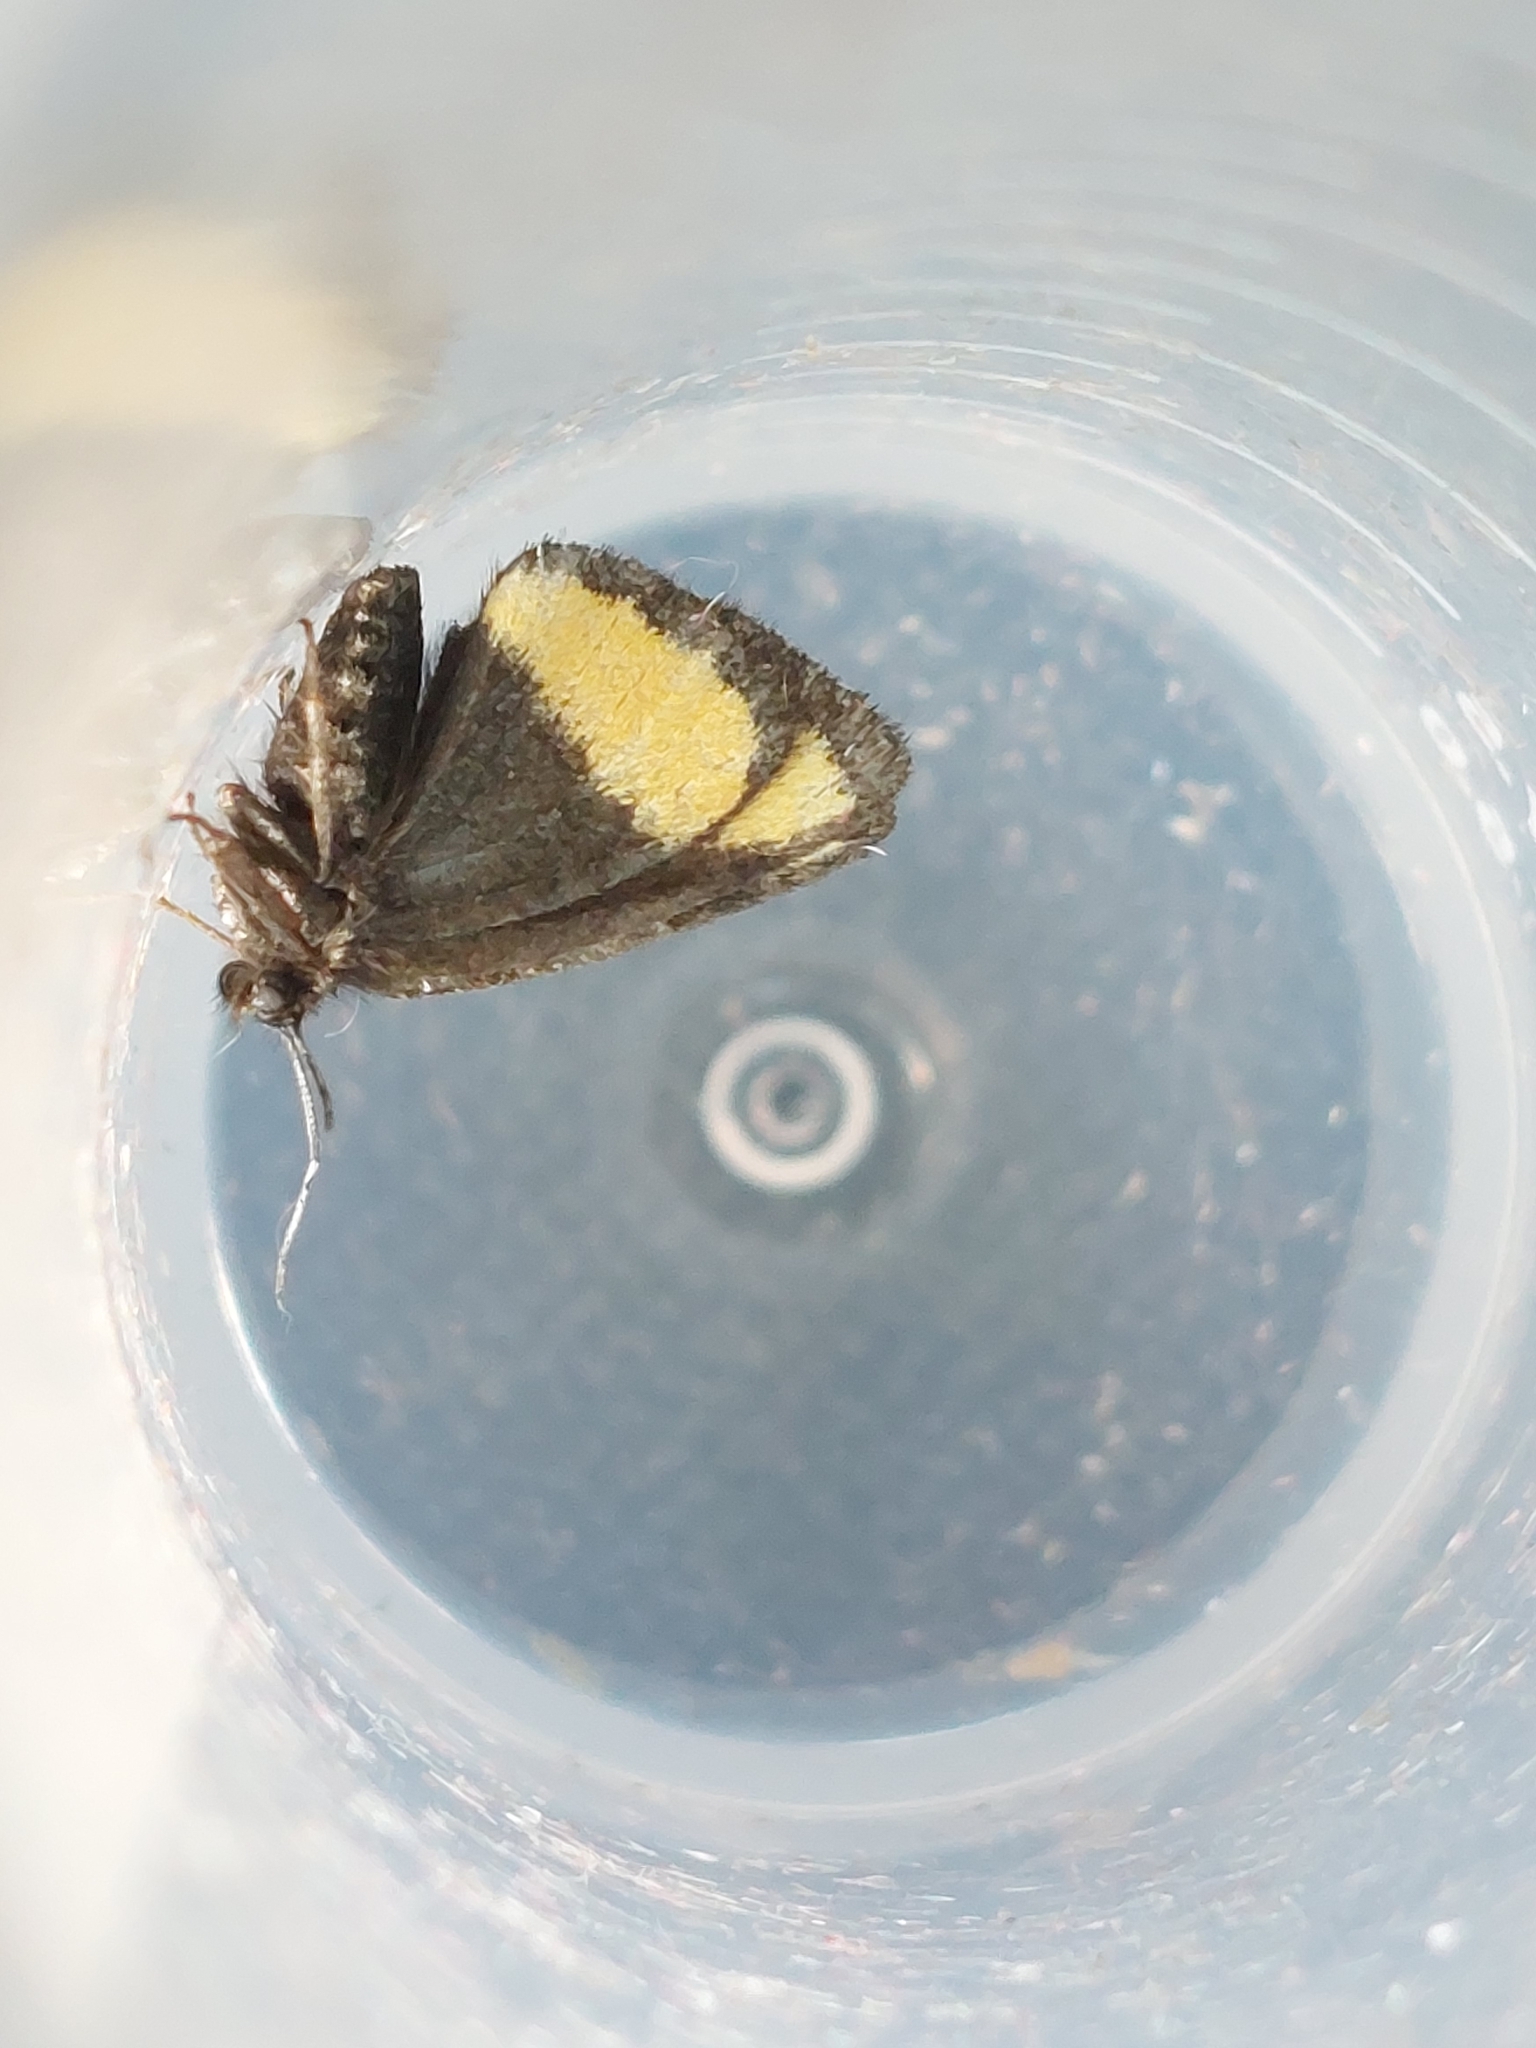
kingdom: Animalia
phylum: Arthropoda
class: Insecta
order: Lepidoptera
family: Geometridae
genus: Psodos
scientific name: Psodos quadrifaria
